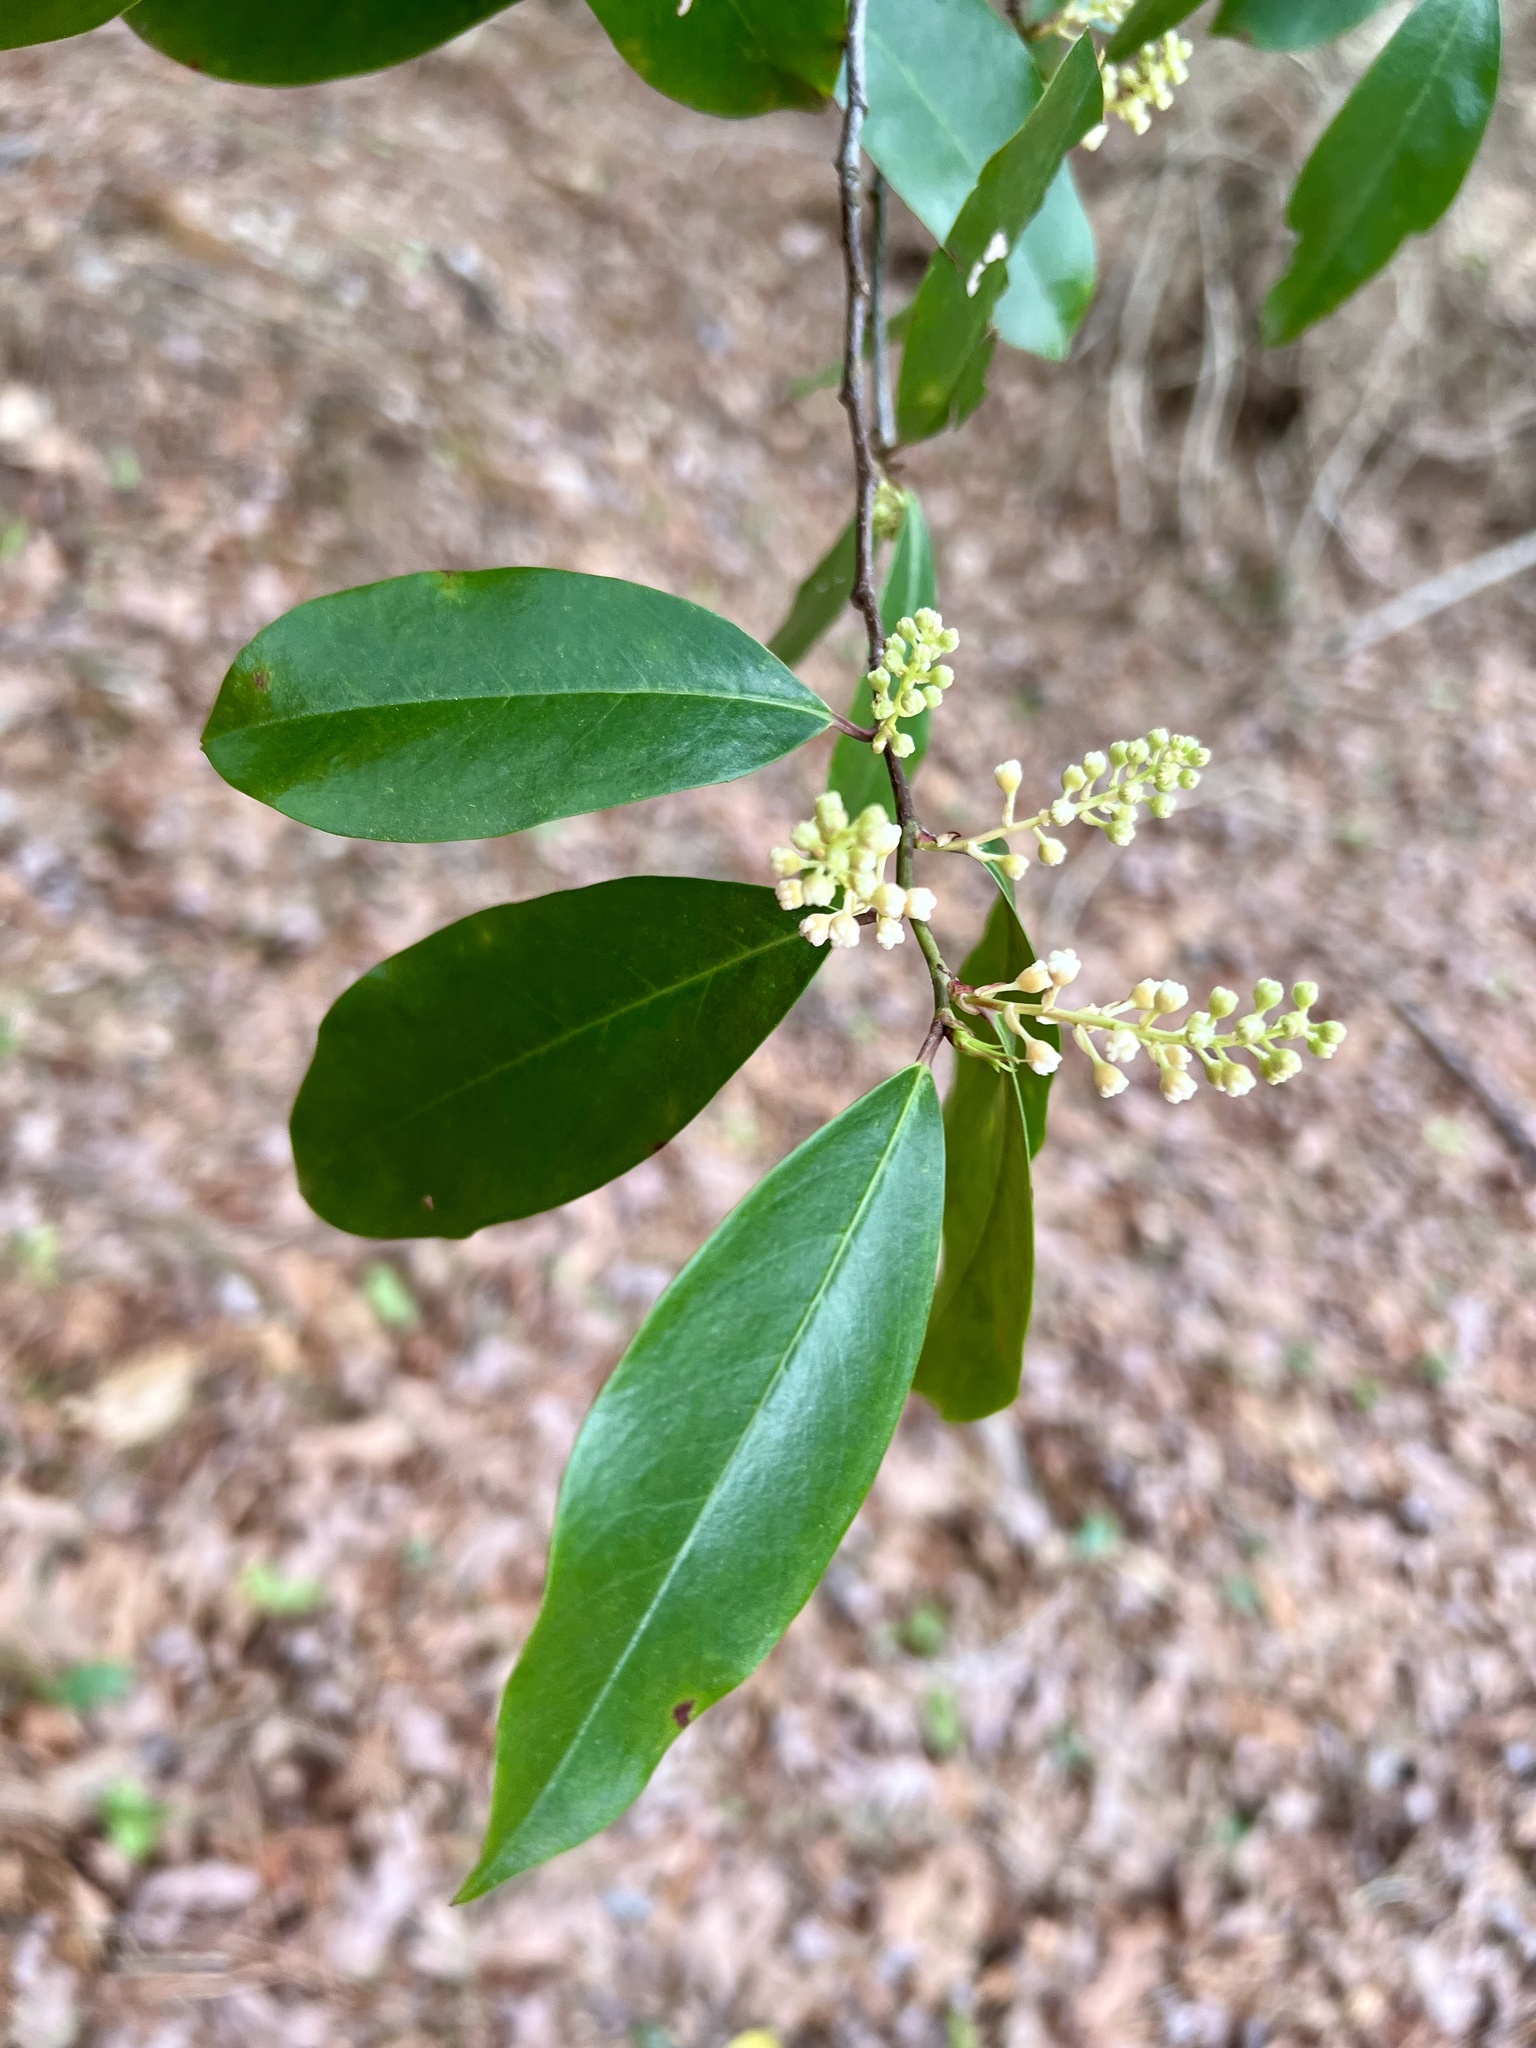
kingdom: Plantae
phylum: Tracheophyta
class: Magnoliopsida
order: Rosales
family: Rosaceae
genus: Prunus
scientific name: Prunus caroliniana
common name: Carolina laurel cherry
